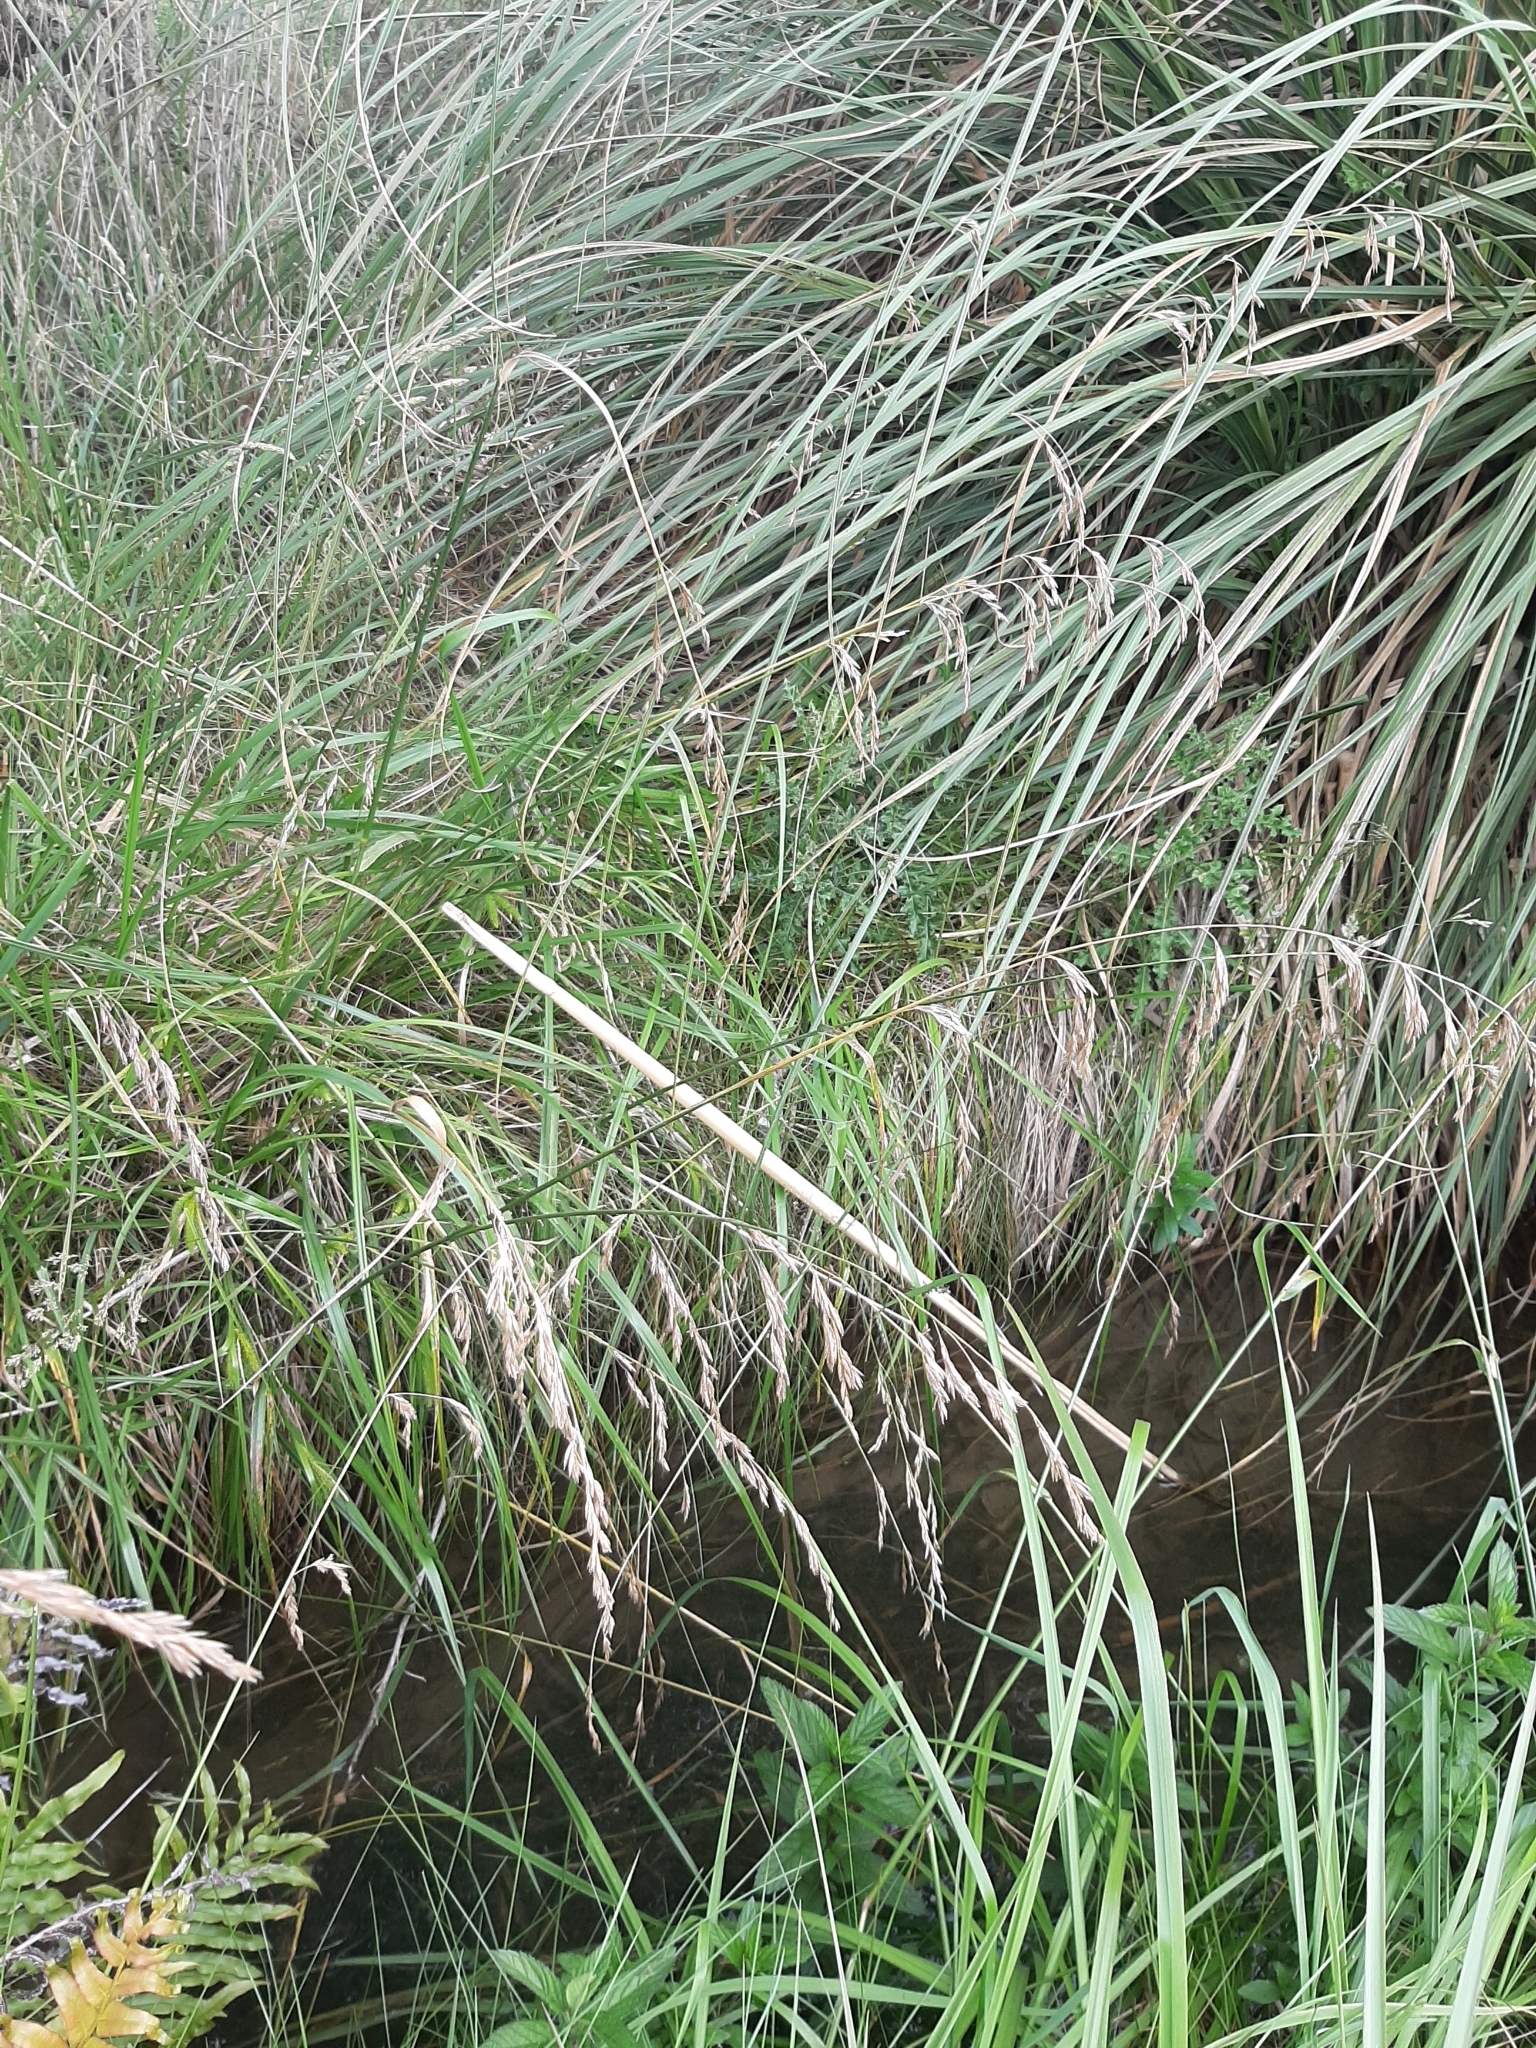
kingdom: Plantae
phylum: Tracheophyta
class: Liliopsida
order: Poales
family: Poaceae
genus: Lolium
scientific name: Lolium arundinaceum
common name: Reed fescue
